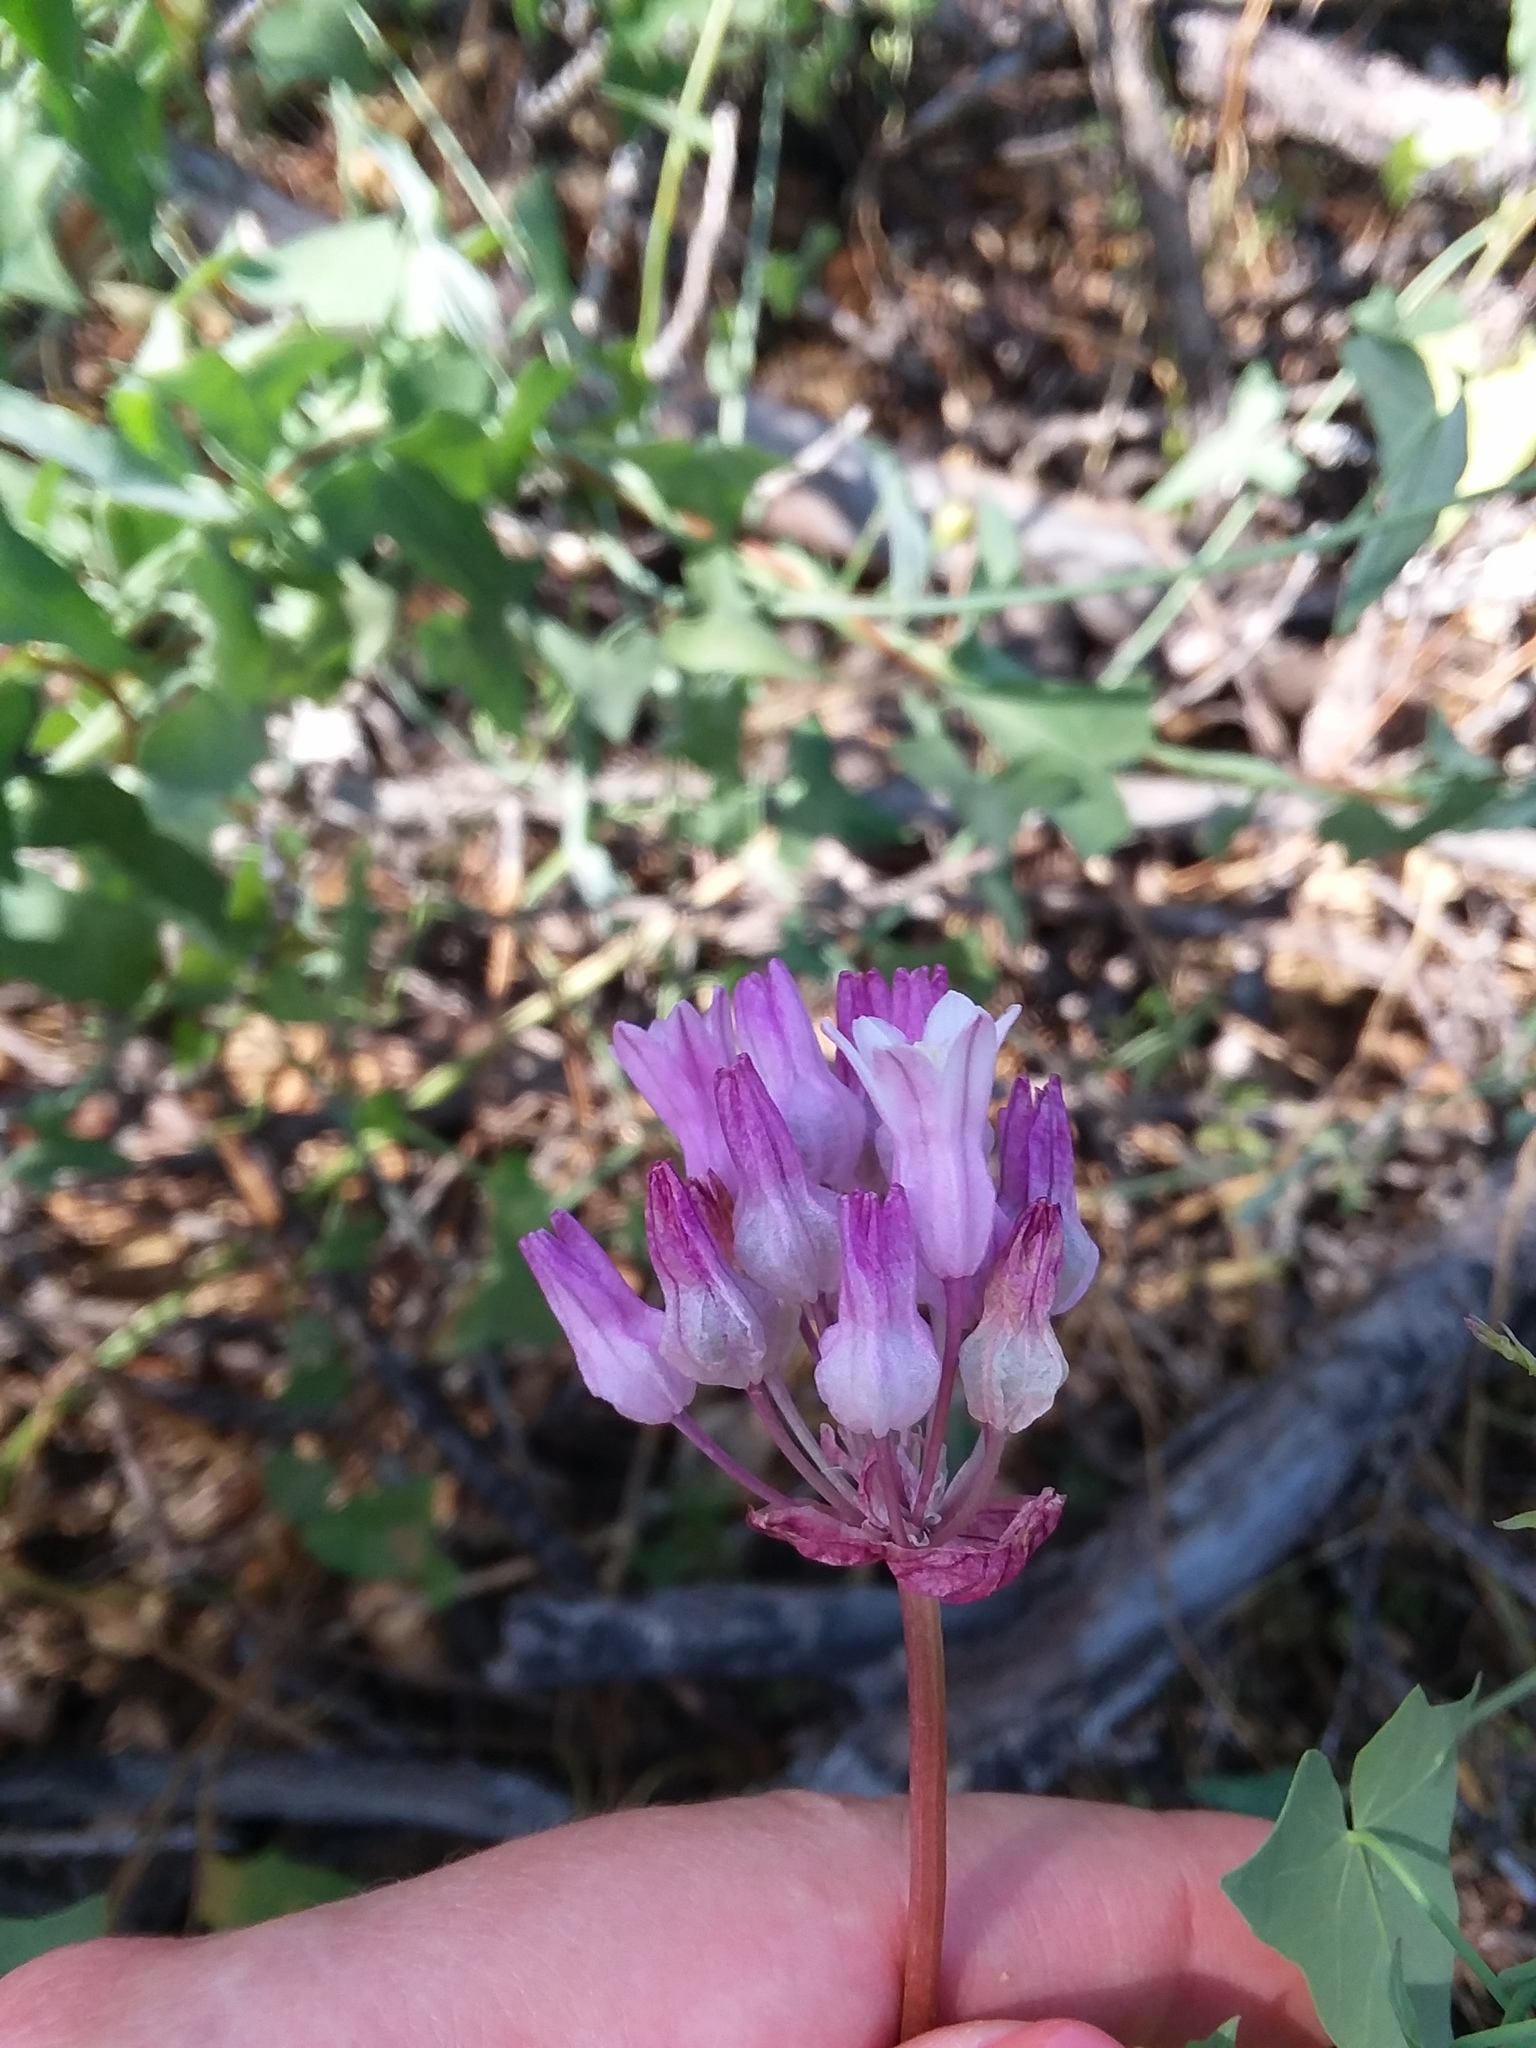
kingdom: Plantae
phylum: Tracheophyta
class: Liliopsida
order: Asparagales
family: Asparagaceae
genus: Dichelostemma
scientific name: Dichelostemma volubile
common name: Trining brodiaea
